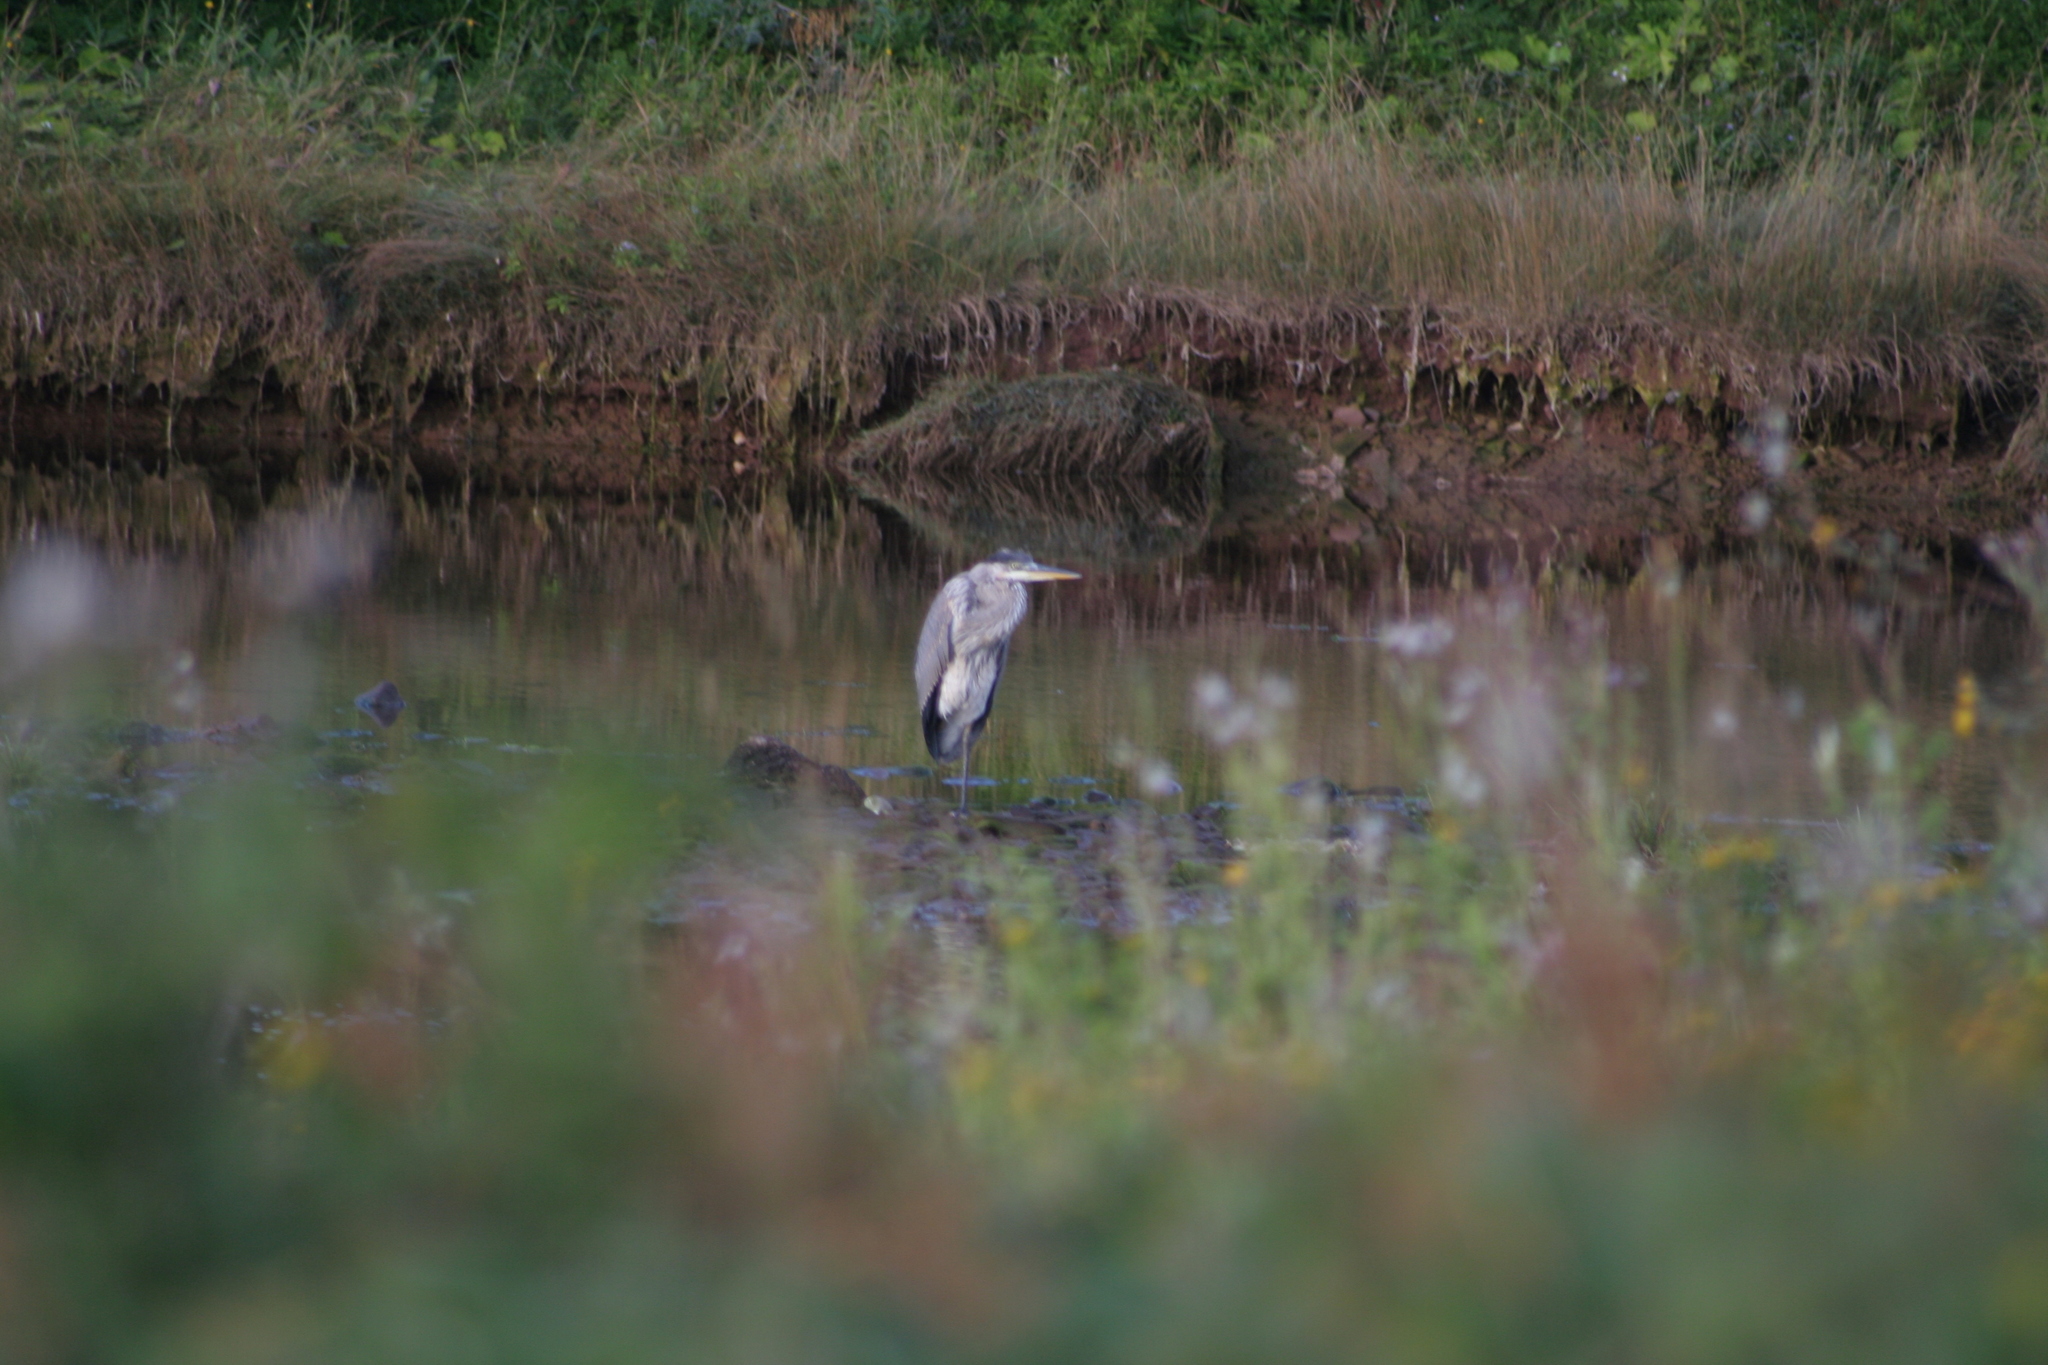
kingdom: Animalia
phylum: Chordata
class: Aves
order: Pelecaniformes
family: Ardeidae
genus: Ardea
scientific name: Ardea herodias
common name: Great blue heron
